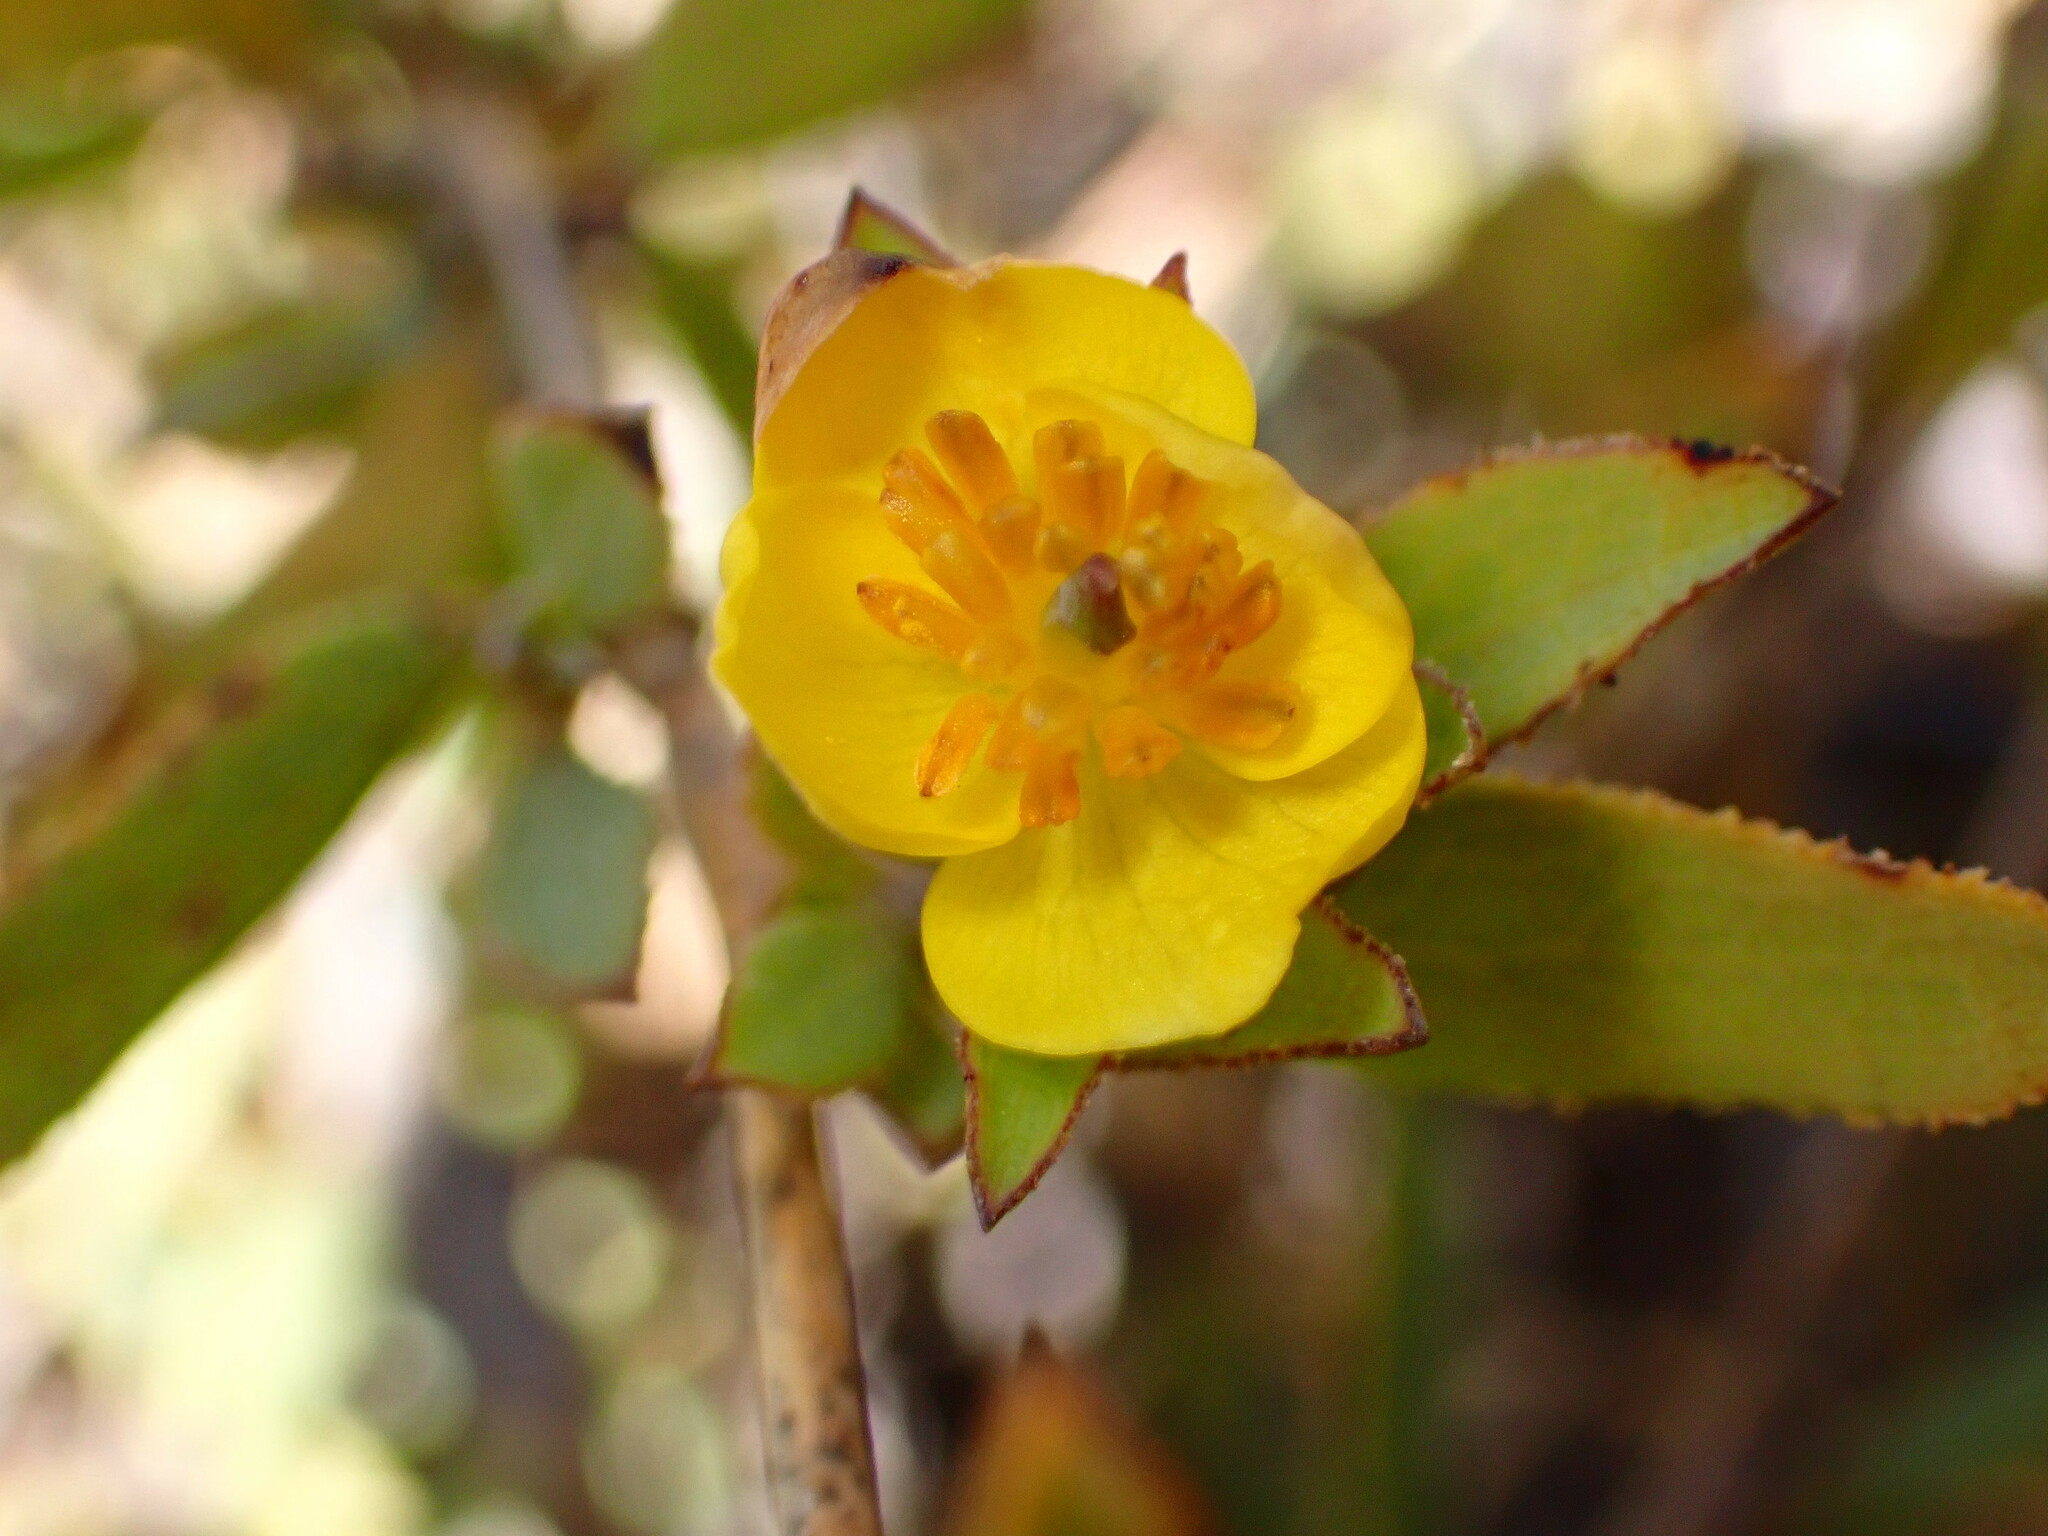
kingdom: Plantae
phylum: Tracheophyta
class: Magnoliopsida
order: Ranunculales
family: Papaveraceae
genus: Dendromecon
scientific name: Dendromecon rigida
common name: Tree poppy
